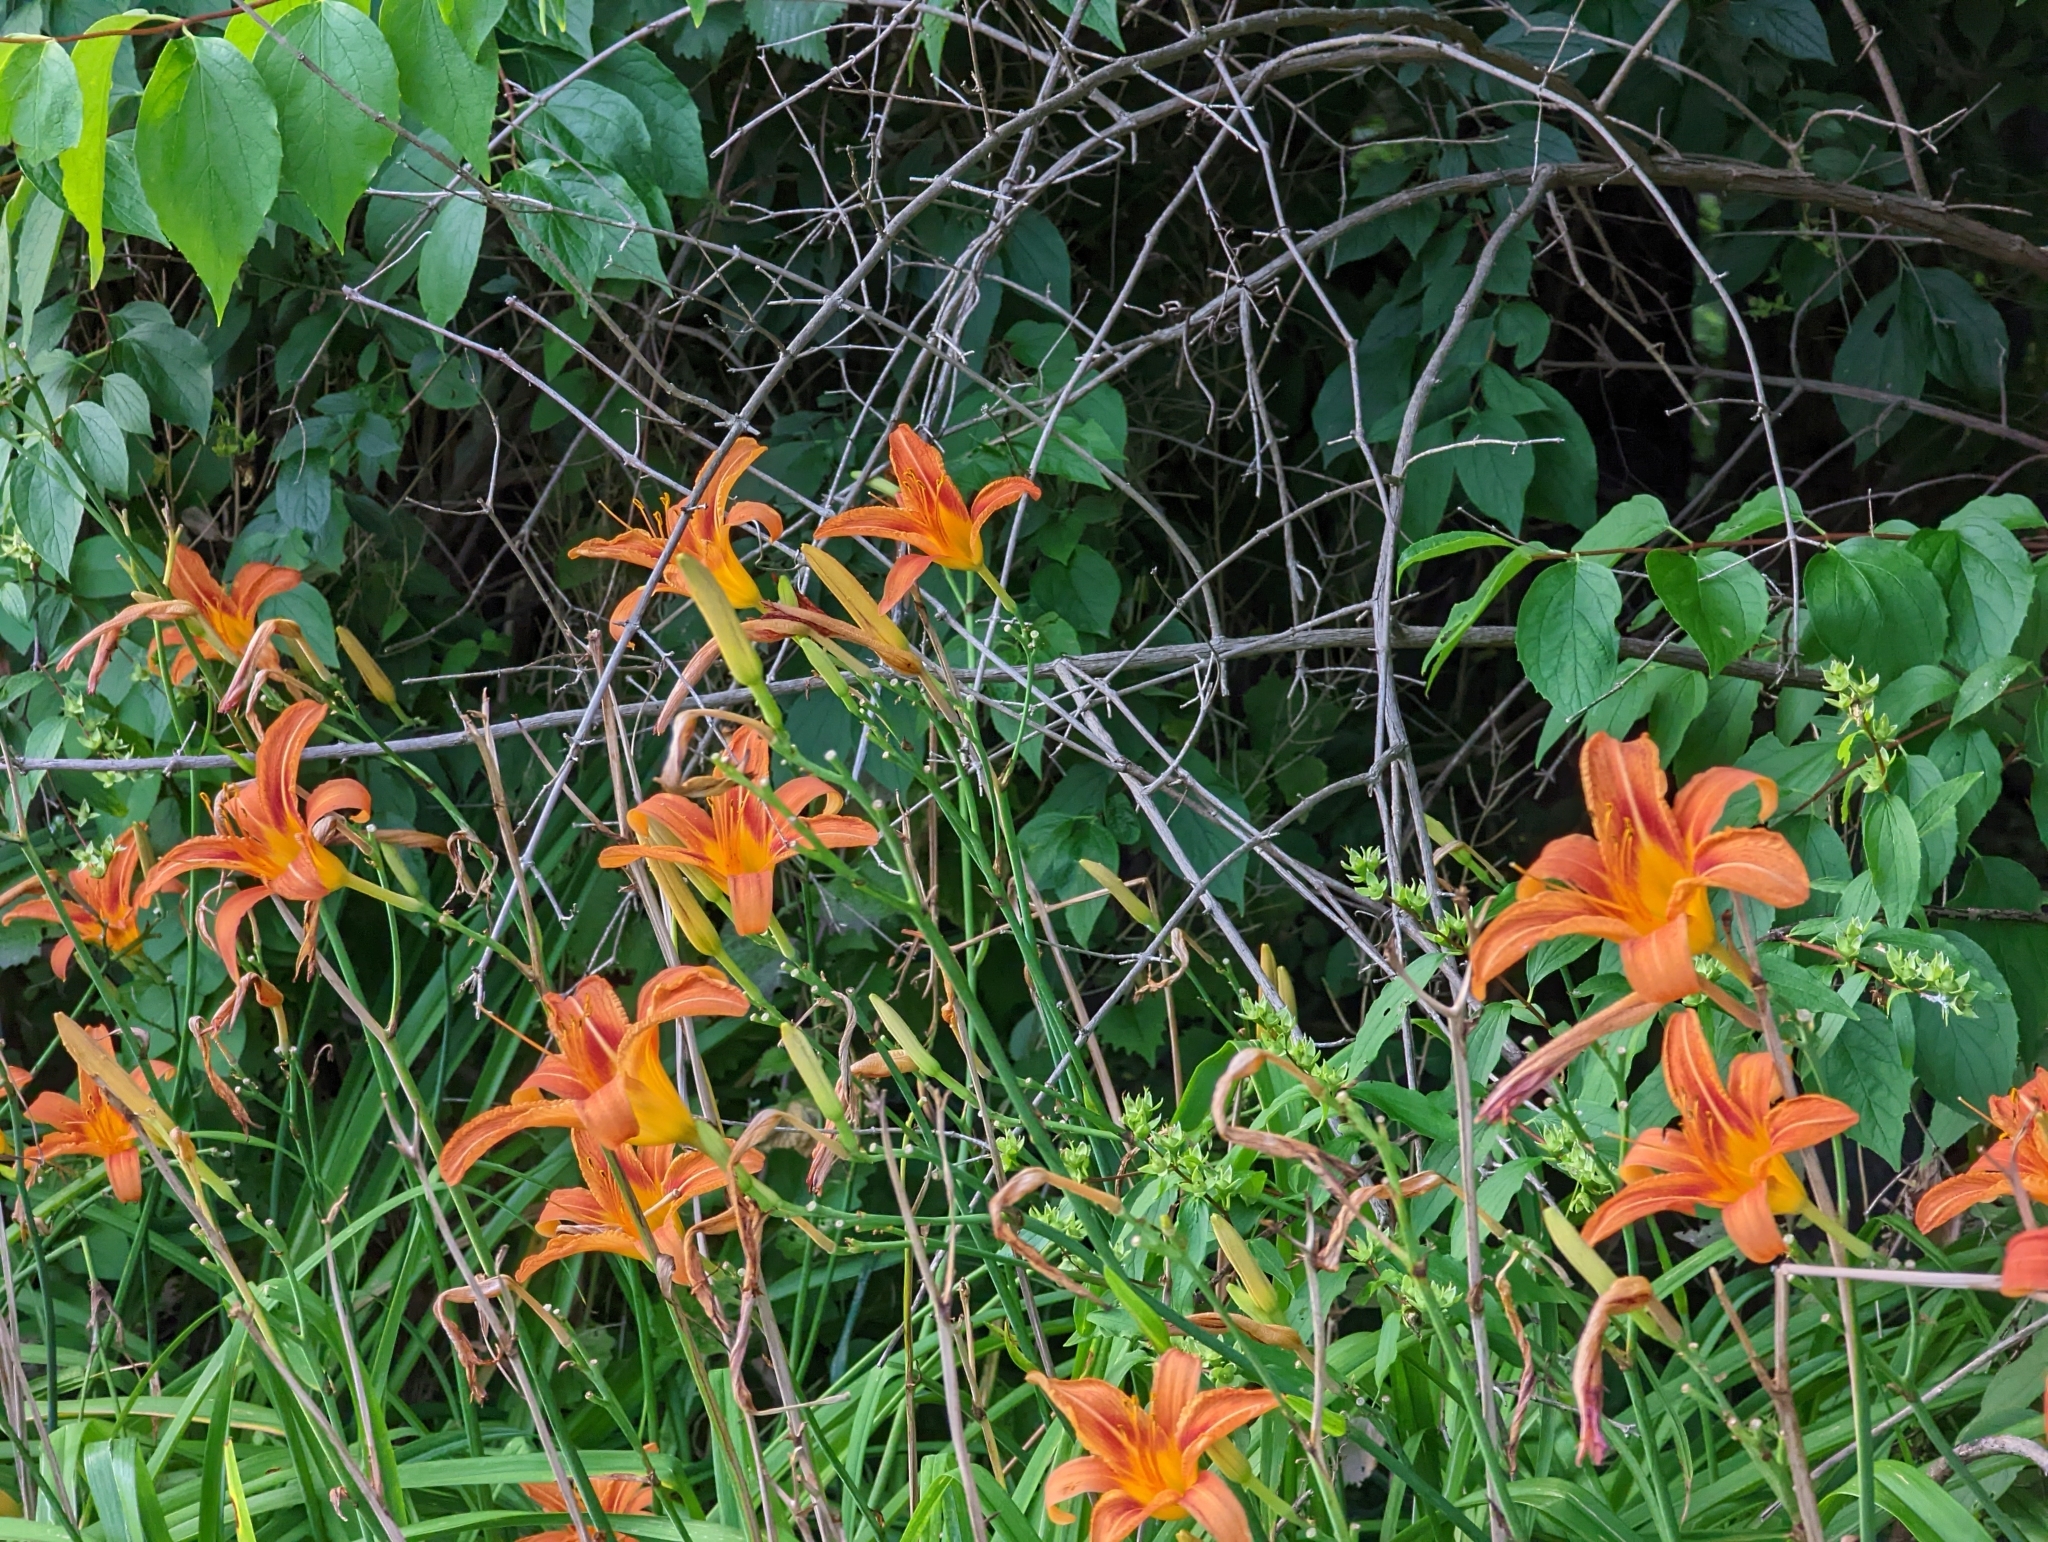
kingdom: Plantae
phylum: Tracheophyta
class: Liliopsida
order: Asparagales
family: Asphodelaceae
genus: Hemerocallis
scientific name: Hemerocallis fulva
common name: Orange day-lily
